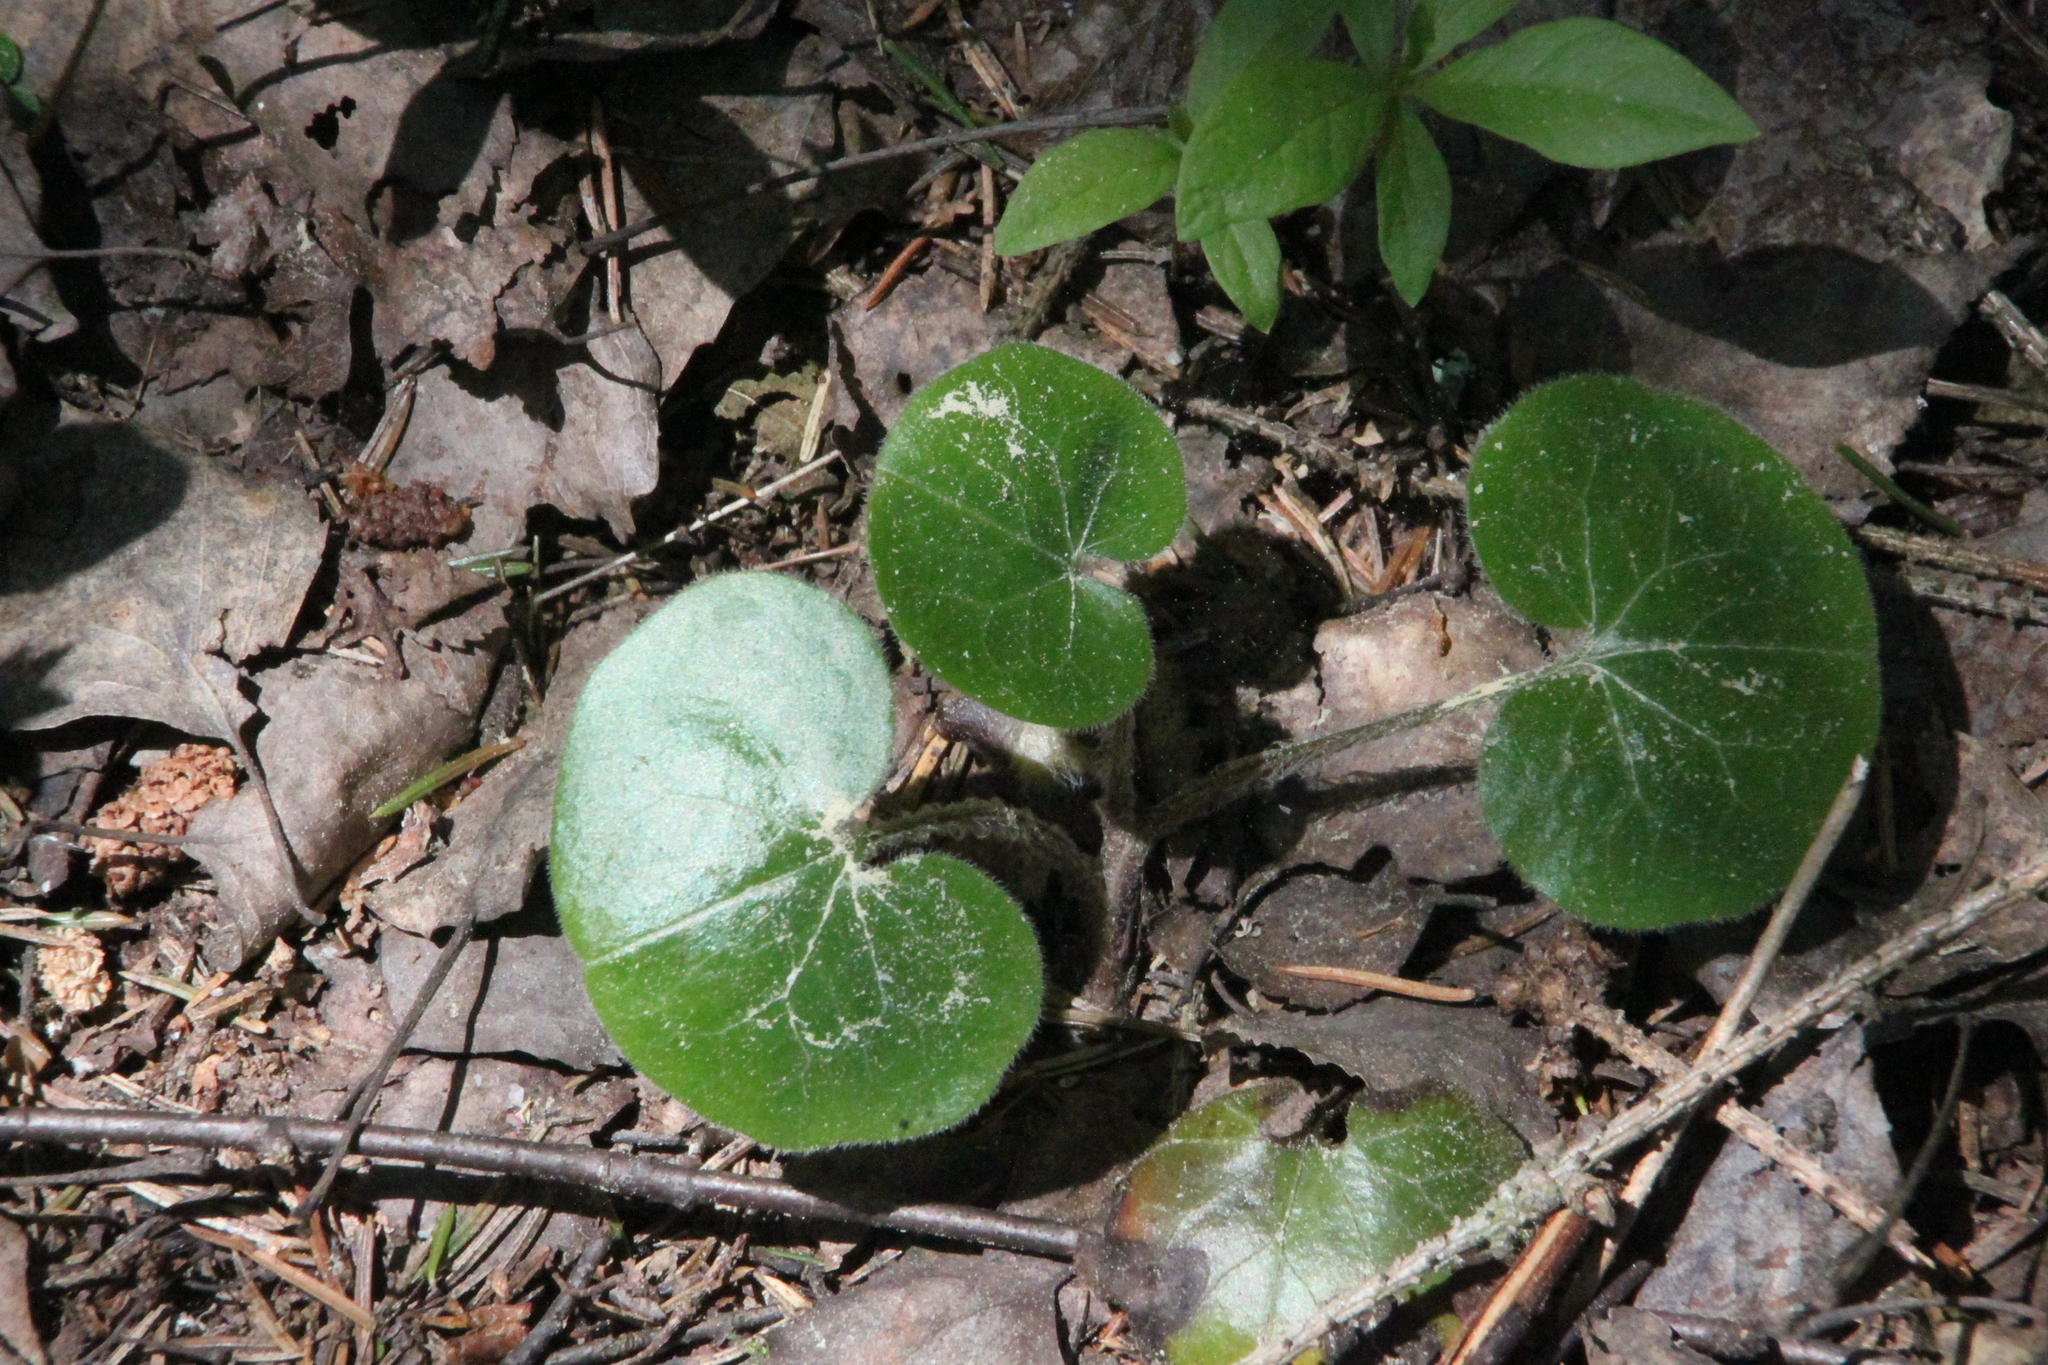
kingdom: Plantae
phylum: Tracheophyta
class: Magnoliopsida
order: Piperales
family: Aristolochiaceae
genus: Asarum
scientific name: Asarum europaeum
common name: Asarabacca
